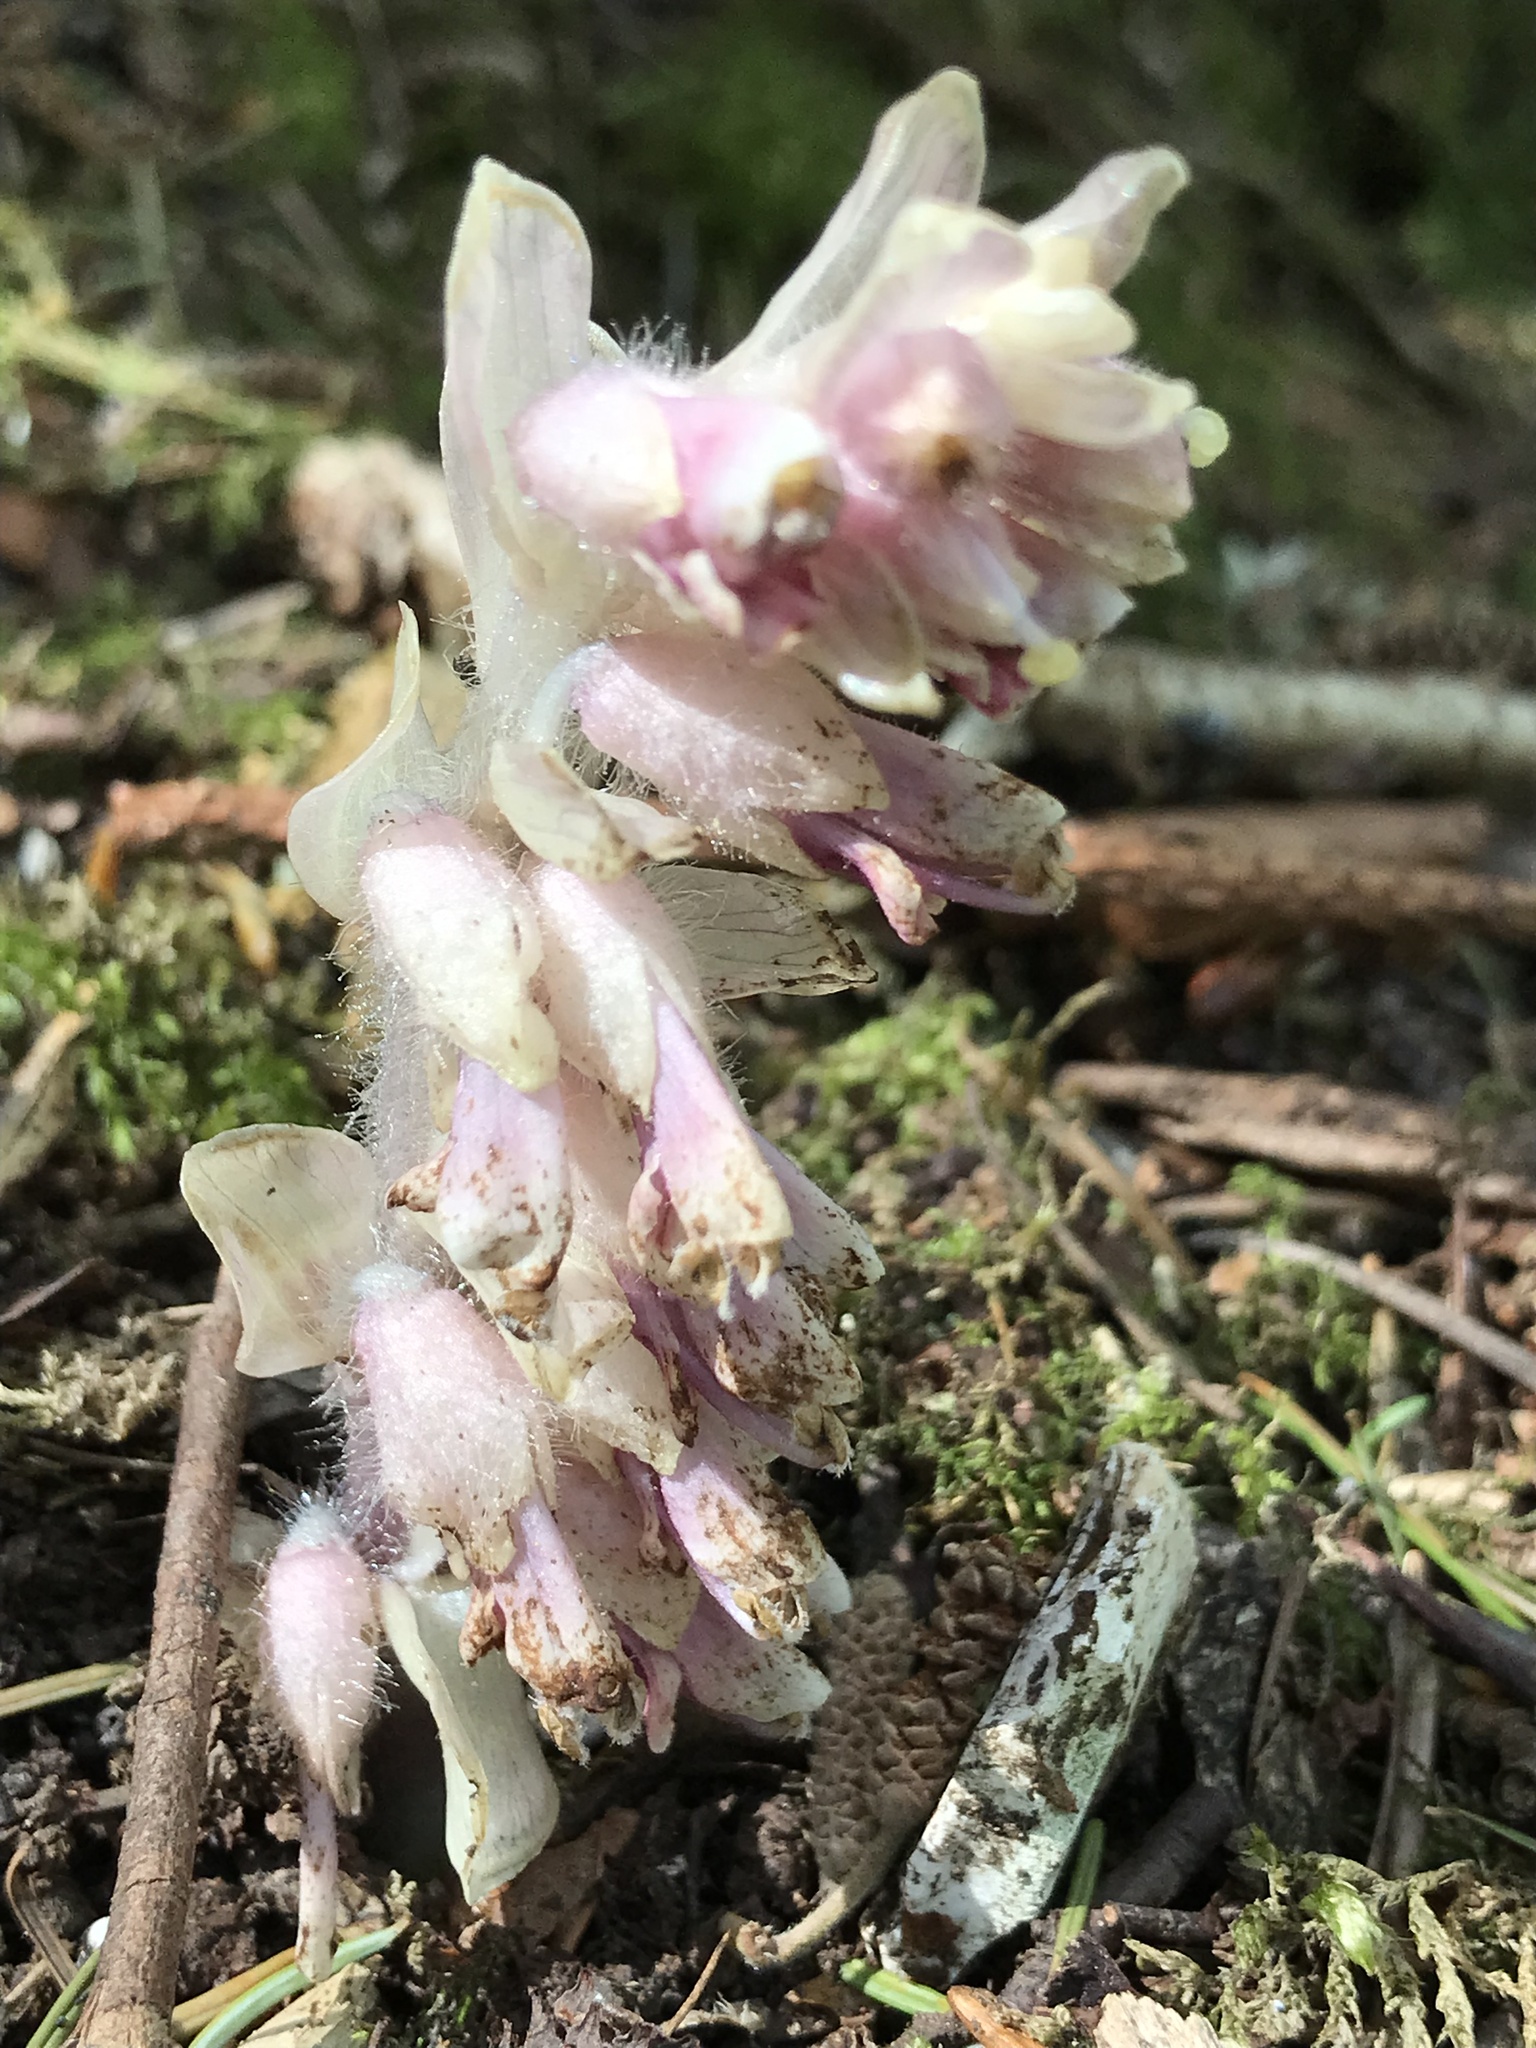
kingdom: Plantae
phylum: Tracheophyta
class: Magnoliopsida
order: Lamiales
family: Orobanchaceae
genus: Lathraea
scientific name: Lathraea squamaria
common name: Toothwort
